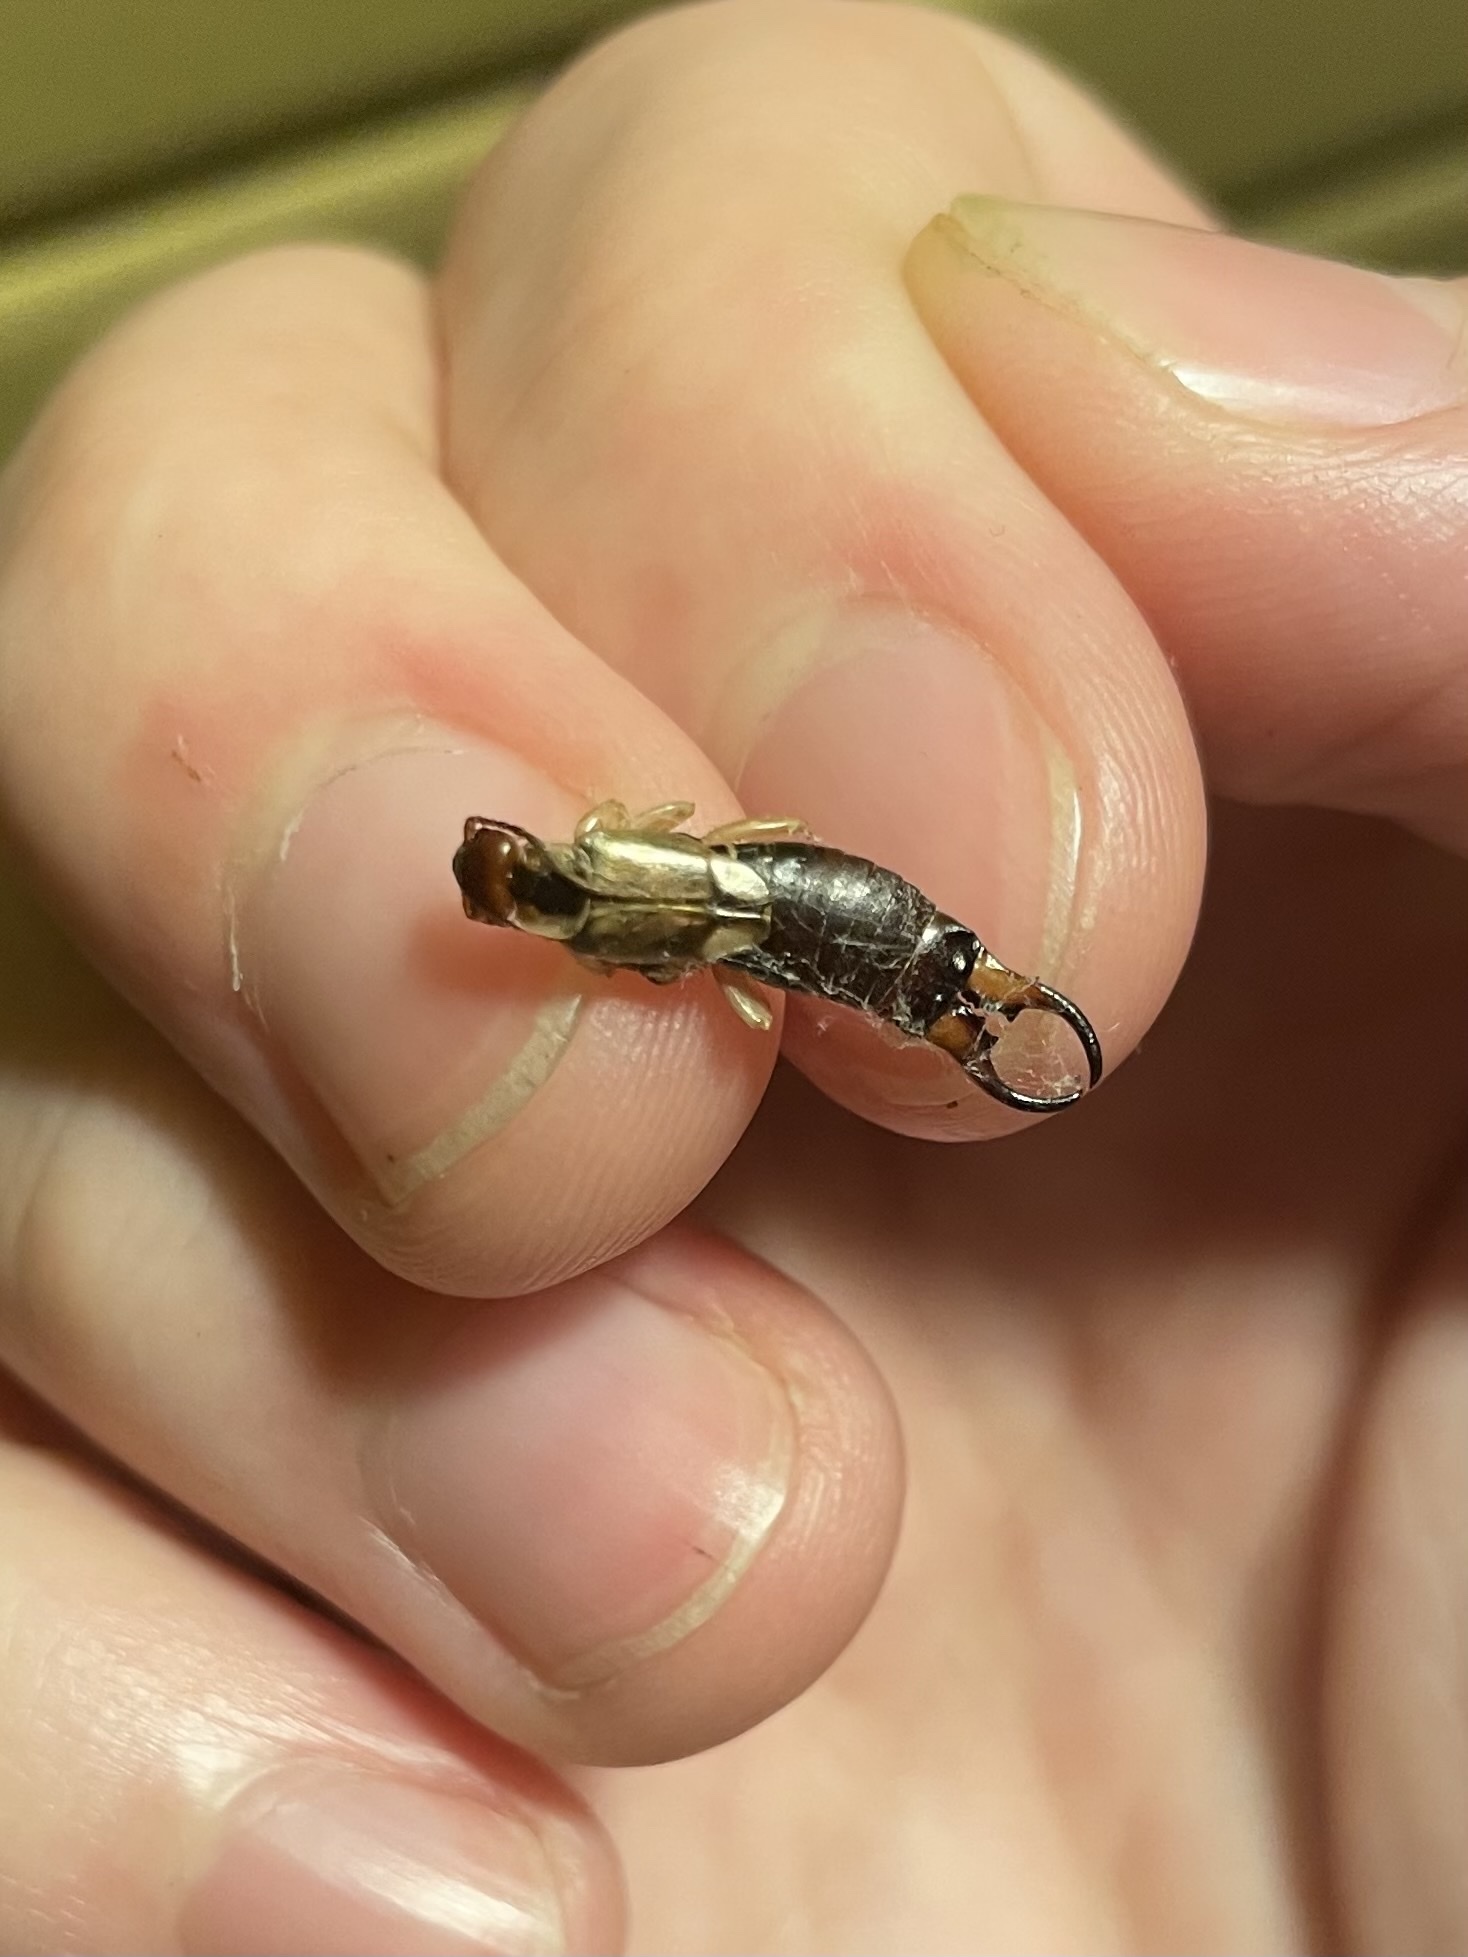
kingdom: Animalia
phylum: Arthropoda
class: Insecta
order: Dermaptera
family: Forficulidae
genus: Forficula
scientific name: Forficula
